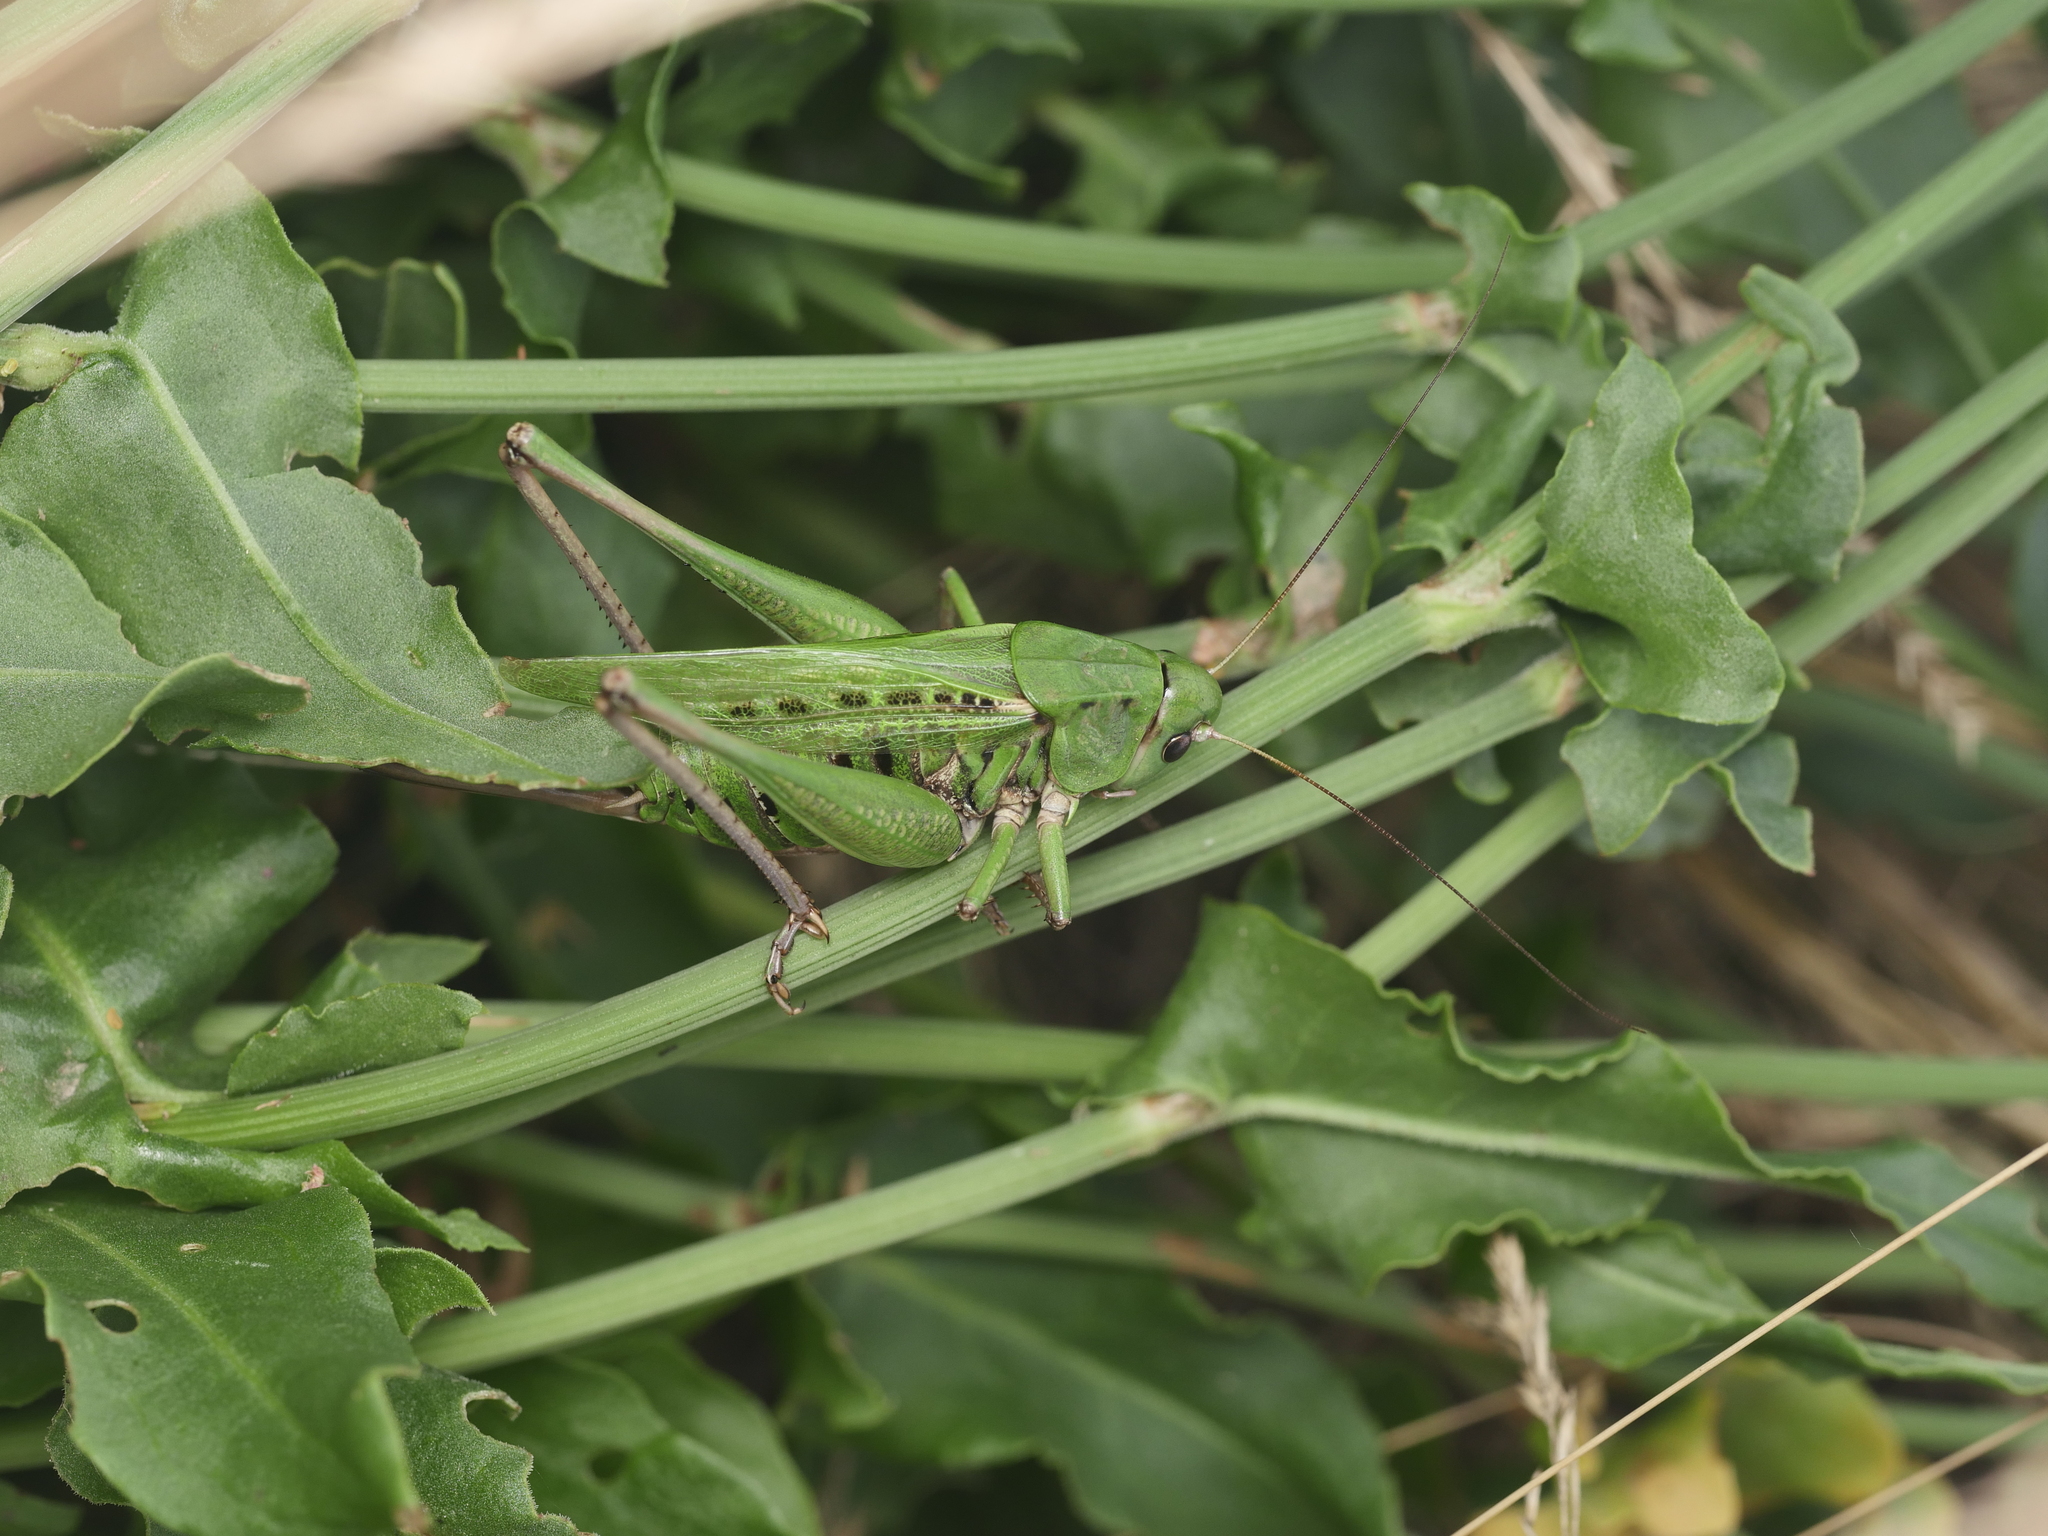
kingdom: Animalia
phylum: Arthropoda
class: Insecta
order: Orthoptera
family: Tettigoniidae
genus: Decticus
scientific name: Decticus verrucivorus
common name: Wart-biter
